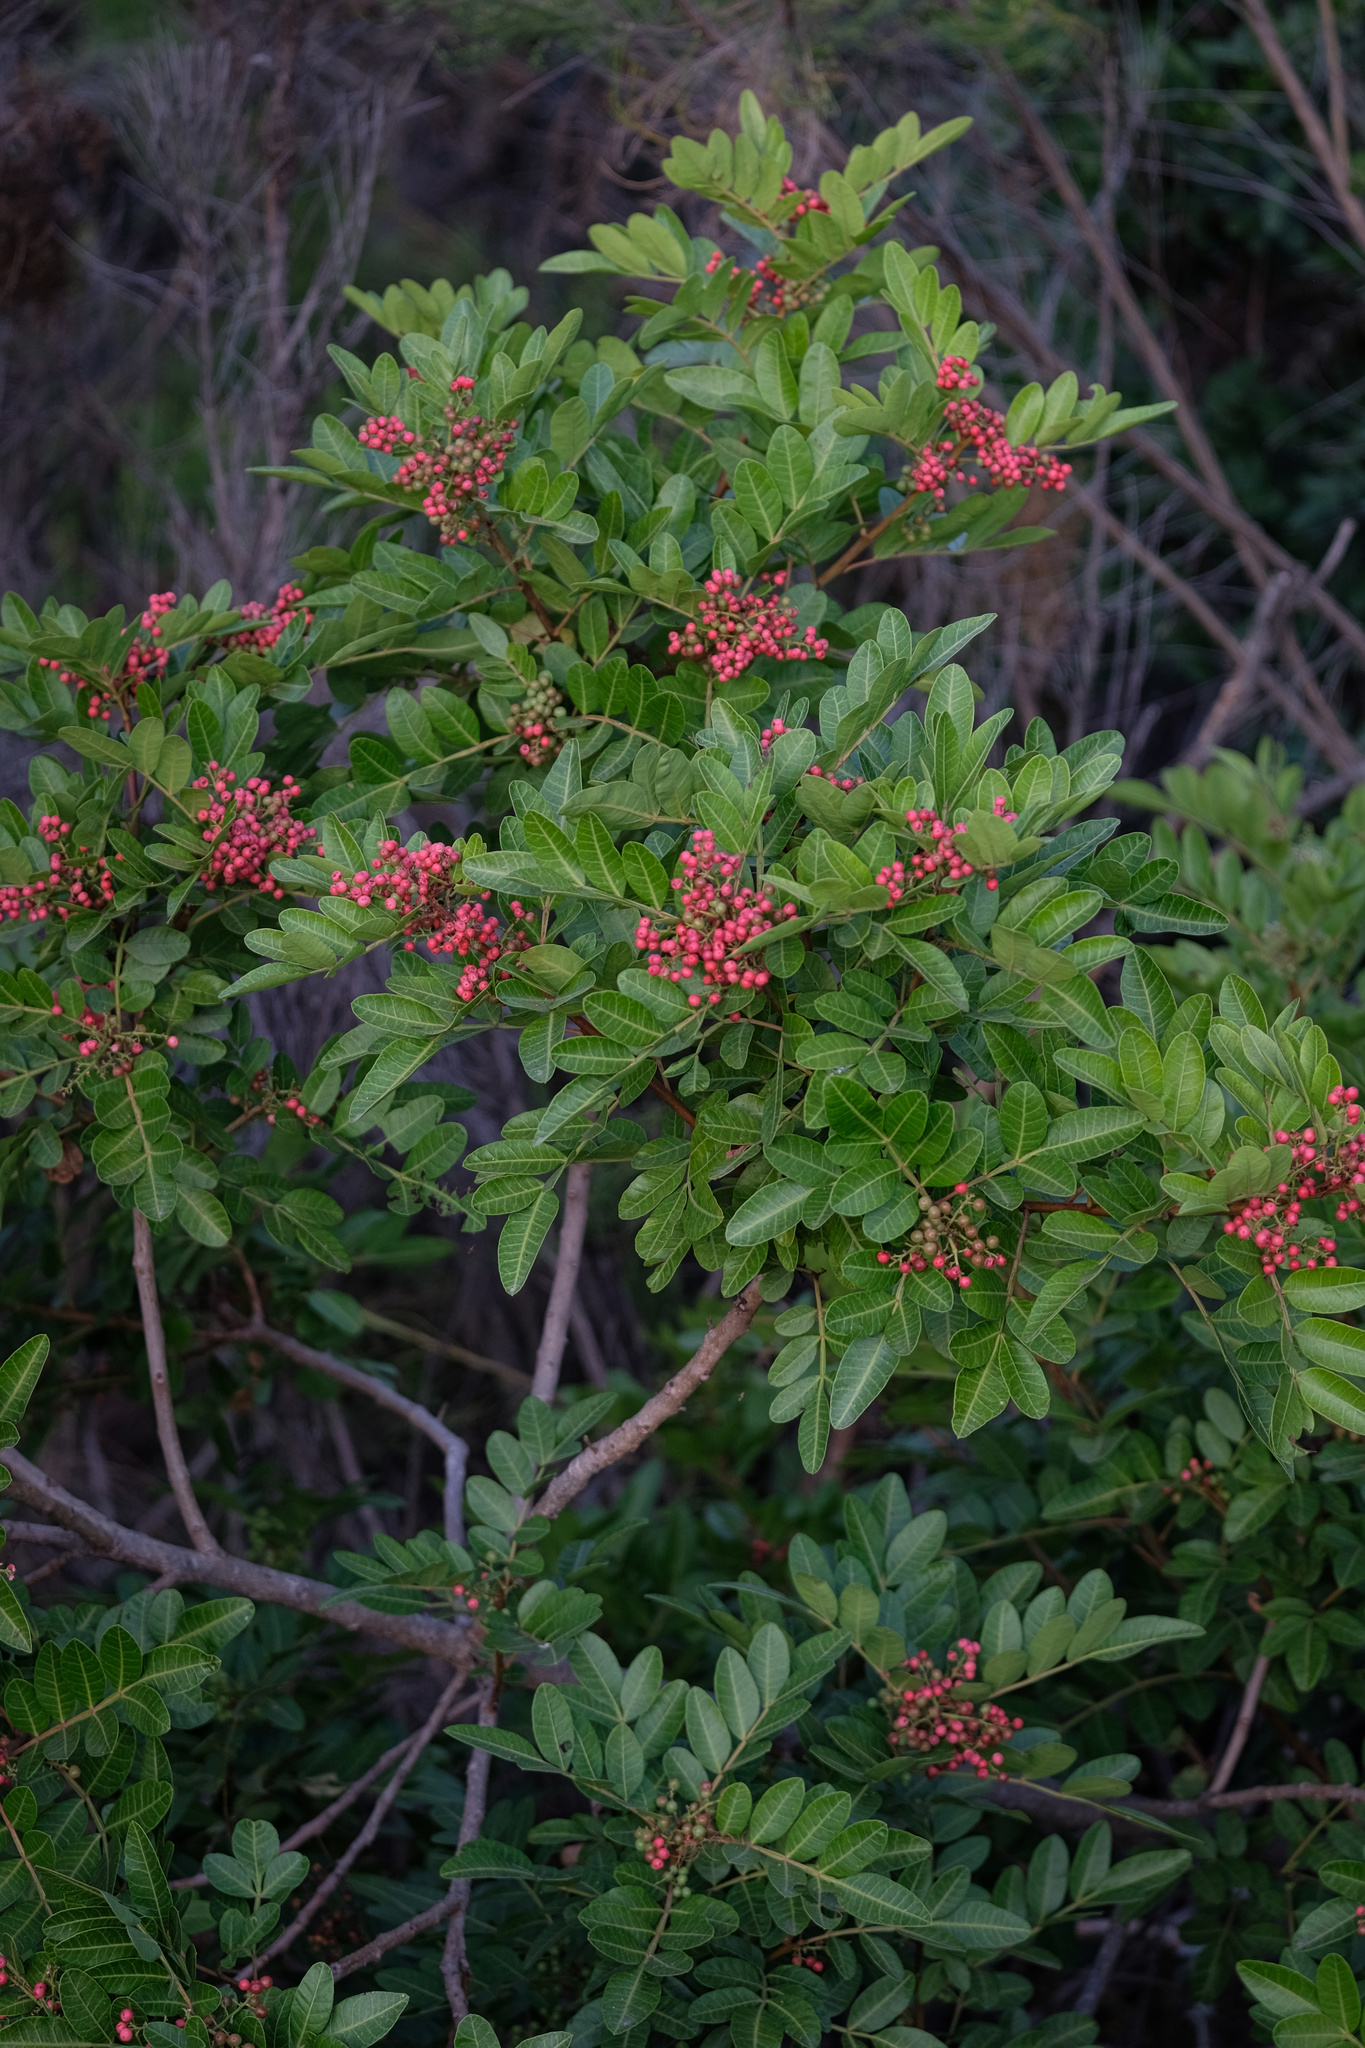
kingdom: Plantae
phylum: Tracheophyta
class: Magnoliopsida
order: Sapindales
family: Anacardiaceae
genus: Schinus
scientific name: Schinus terebinthifolia
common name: Brazilian peppertree
